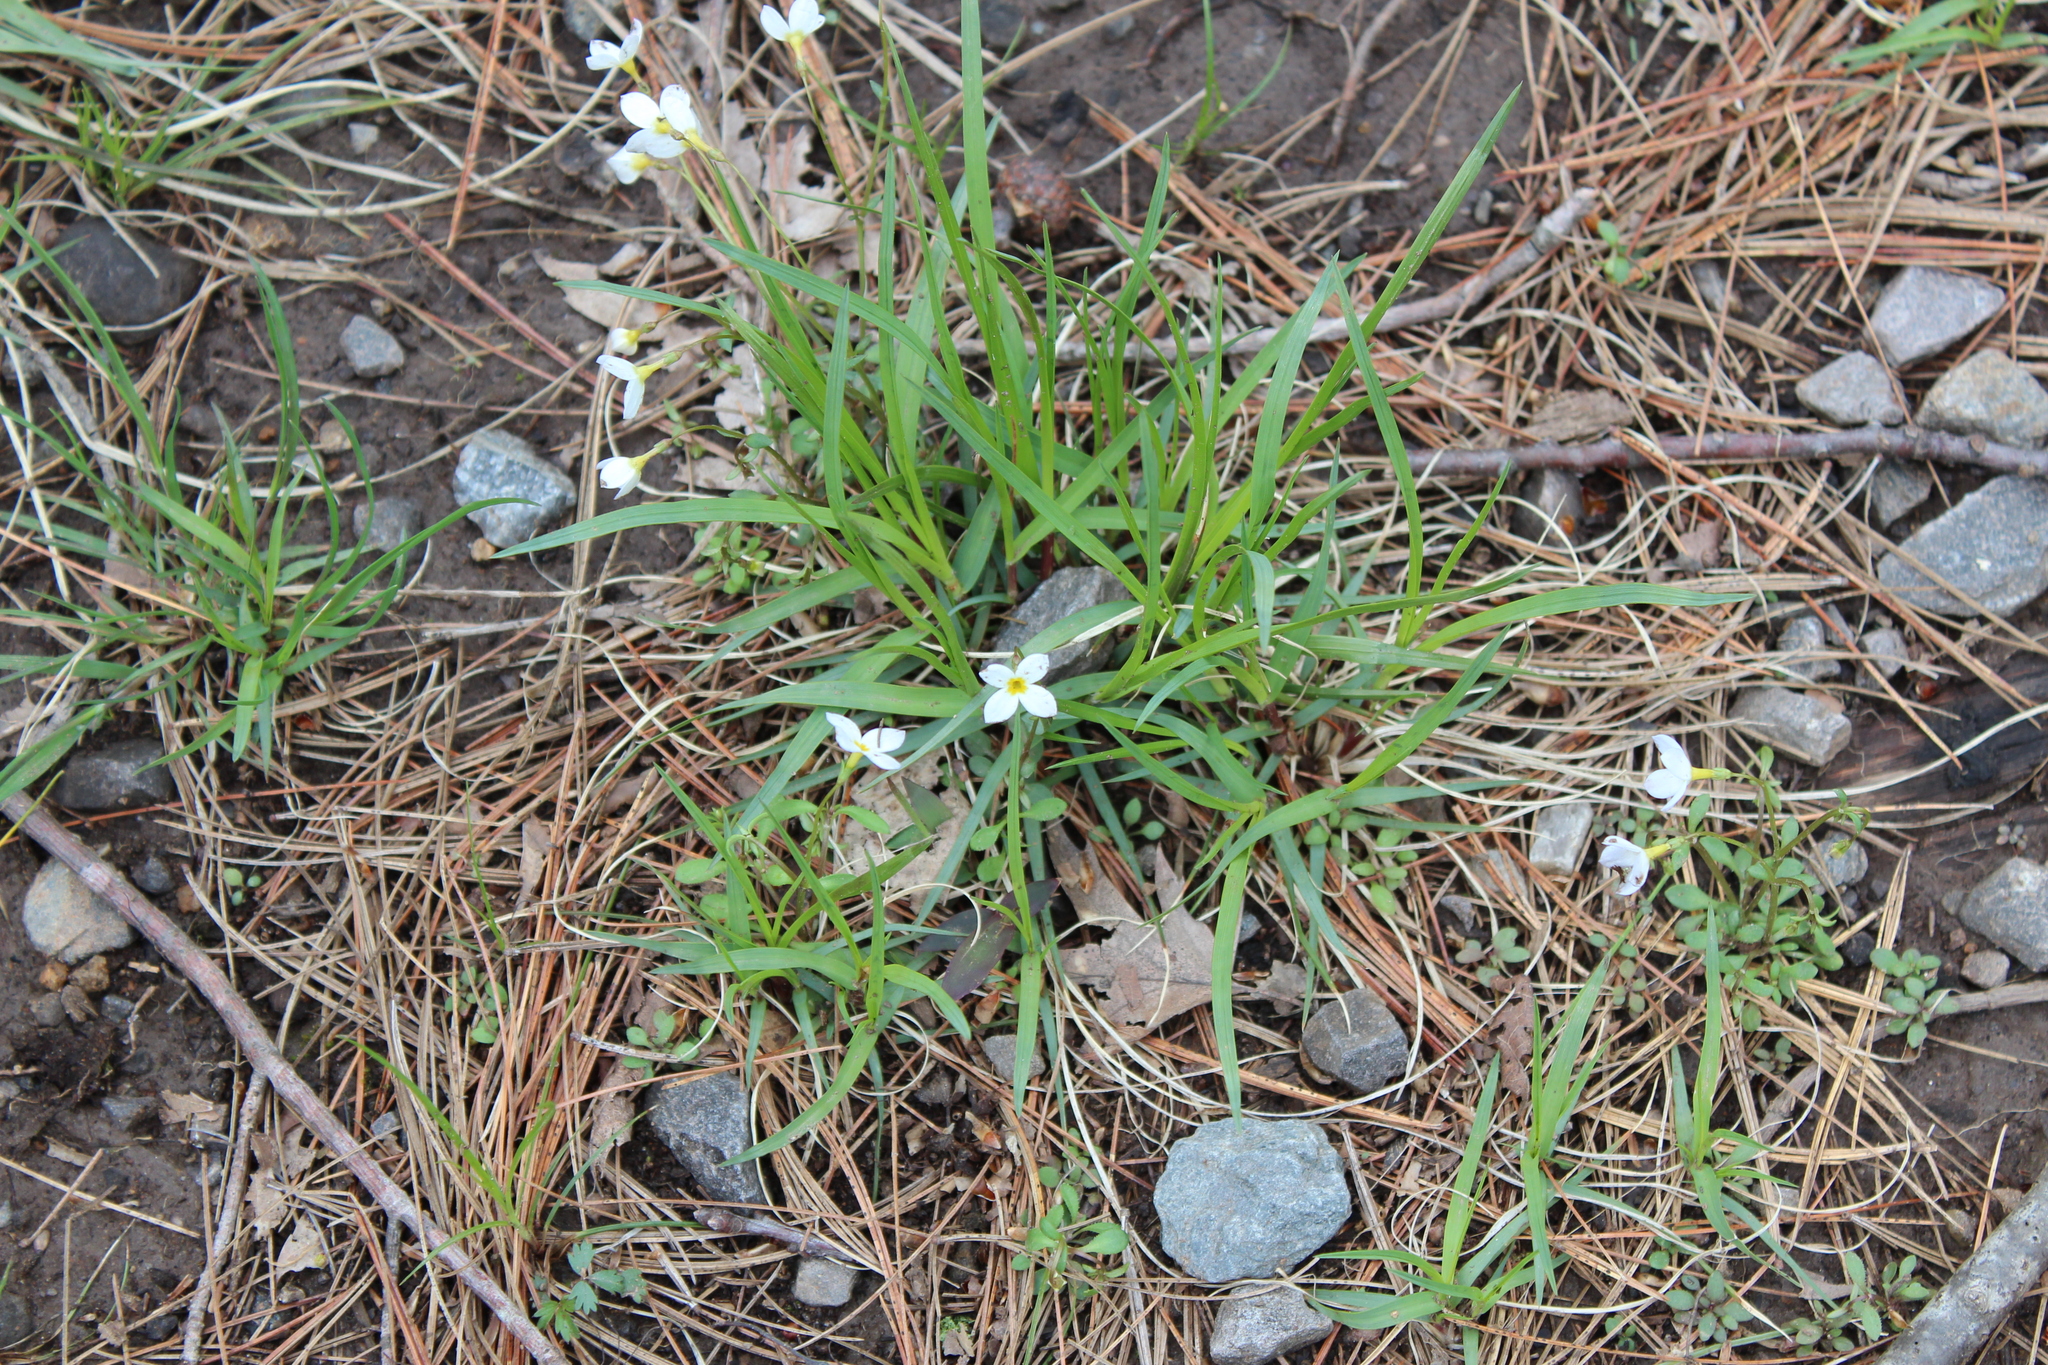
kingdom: Plantae
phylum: Tracheophyta
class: Magnoliopsida
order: Gentianales
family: Rubiaceae
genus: Houstonia
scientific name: Houstonia caerulea
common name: Bluets
